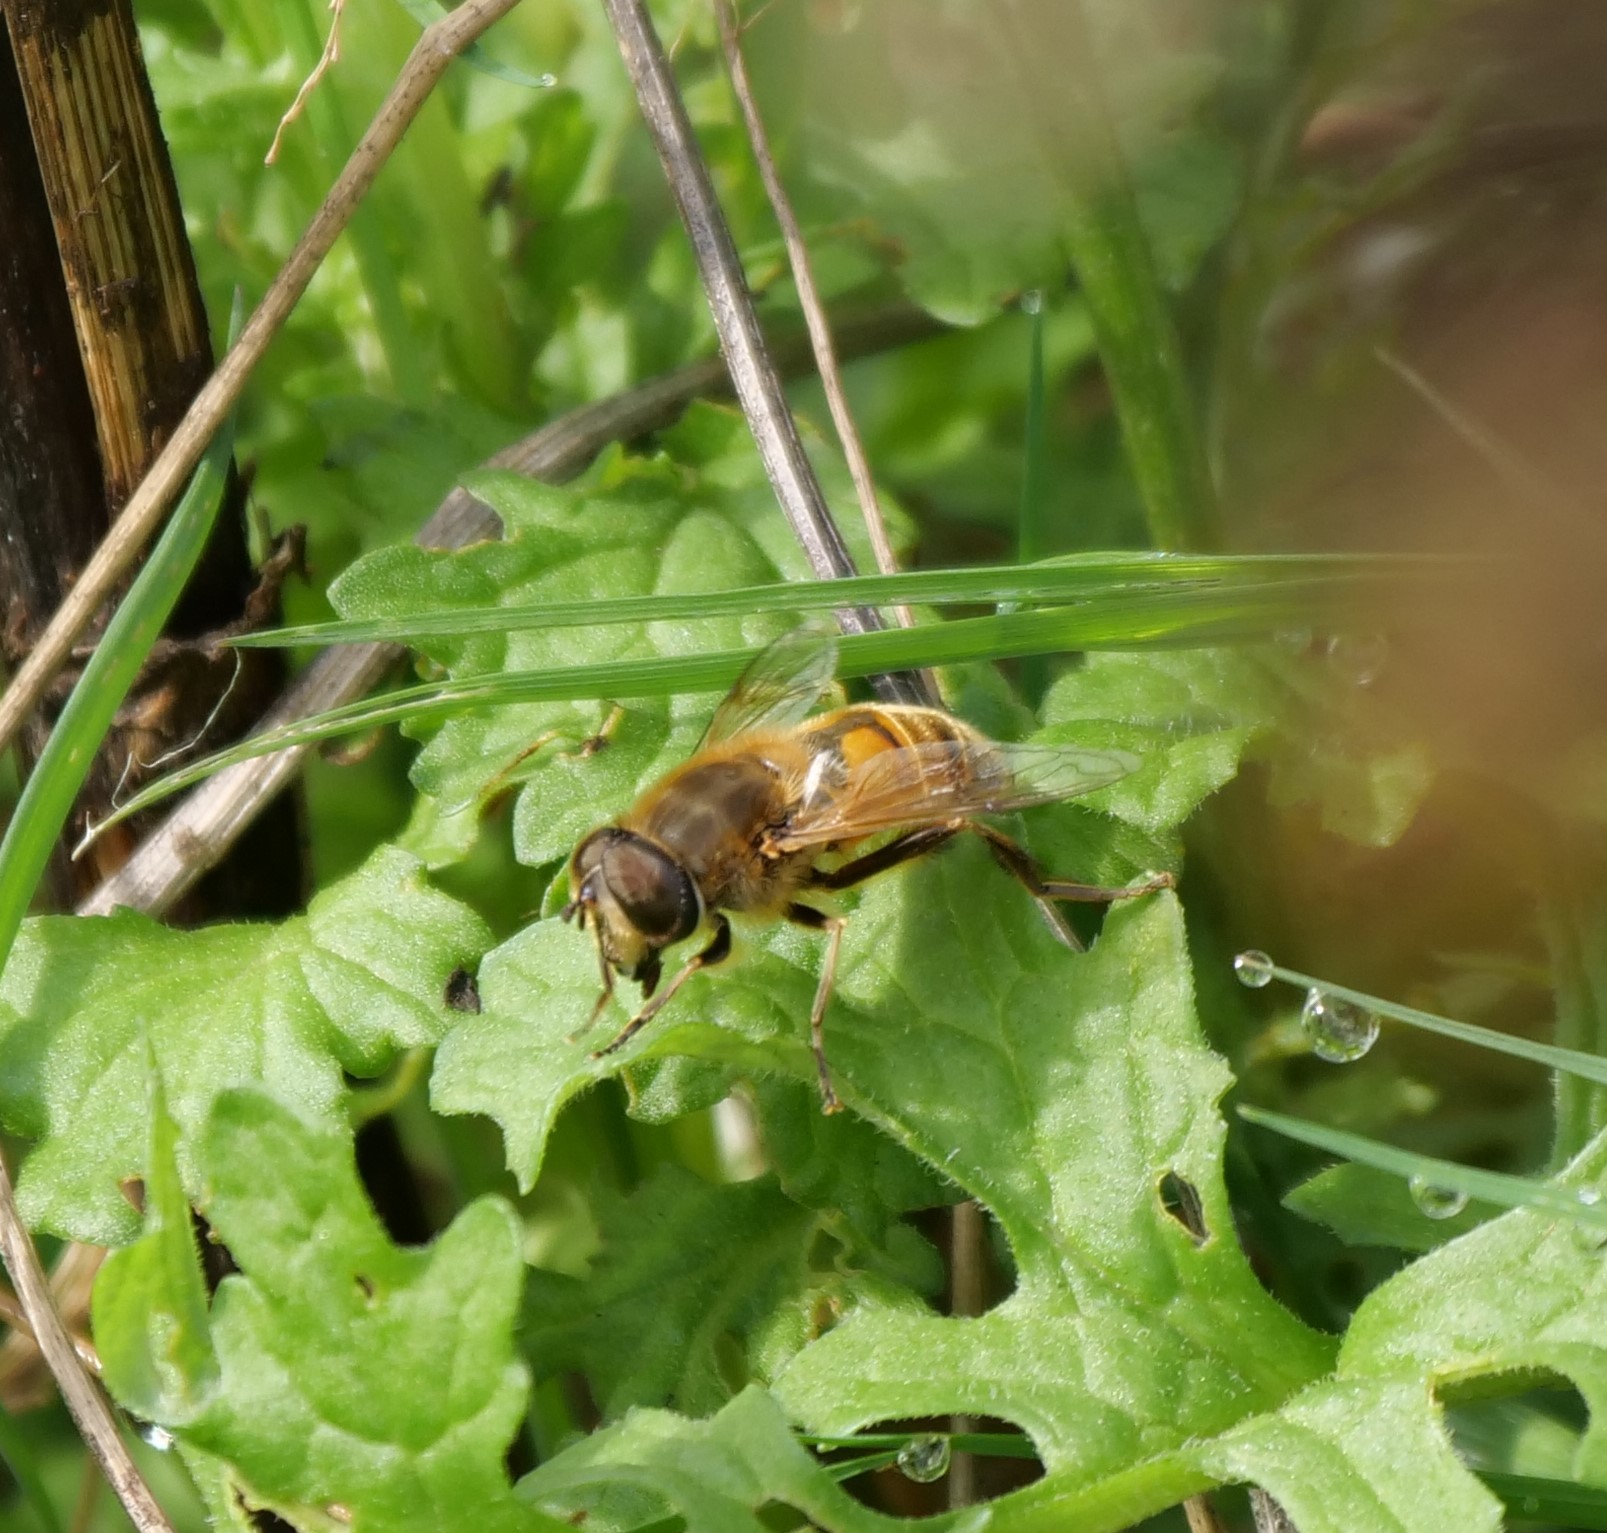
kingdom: Animalia
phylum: Arthropoda
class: Insecta
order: Diptera
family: Syrphidae
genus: Eristalis
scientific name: Eristalis tenax
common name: Drone fly
